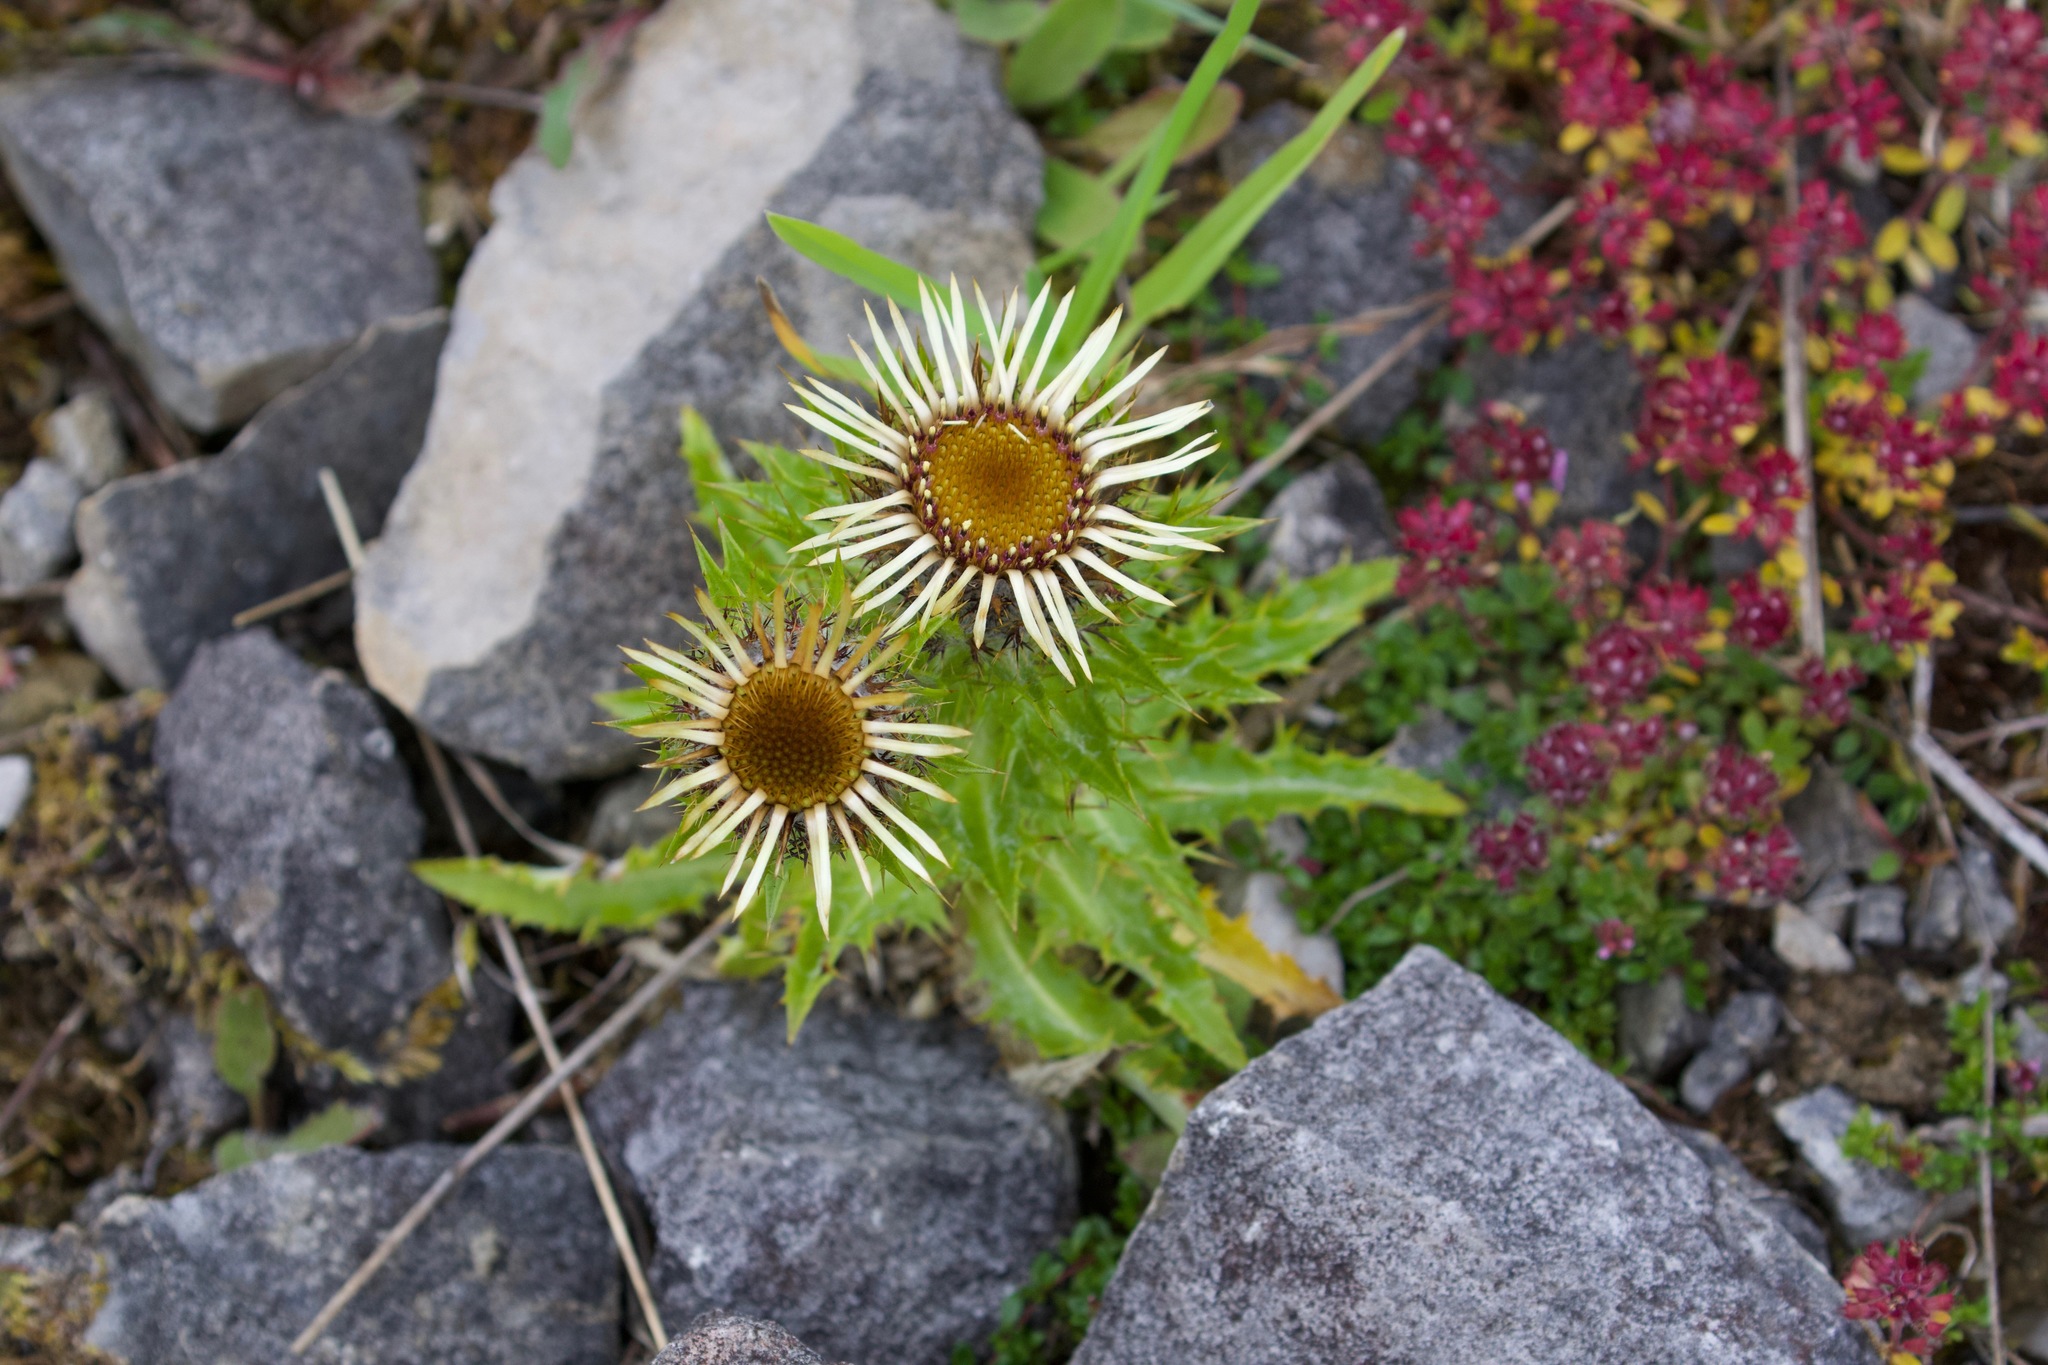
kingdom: Plantae
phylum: Tracheophyta
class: Magnoliopsida
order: Asterales
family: Asteraceae
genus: Carlina
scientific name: Carlina vulgaris
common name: Carline thistle
